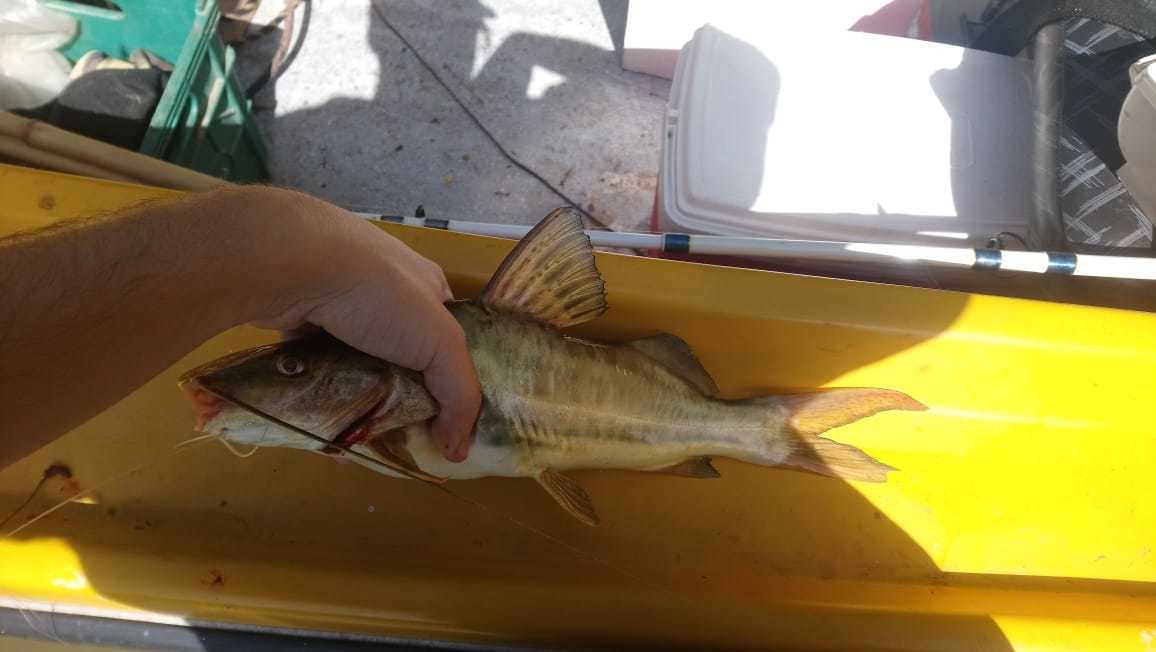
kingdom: Animalia
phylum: Chordata
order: Siluriformes
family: Pimelodidae
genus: Pimelodus
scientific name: Pimelodus maculatus
